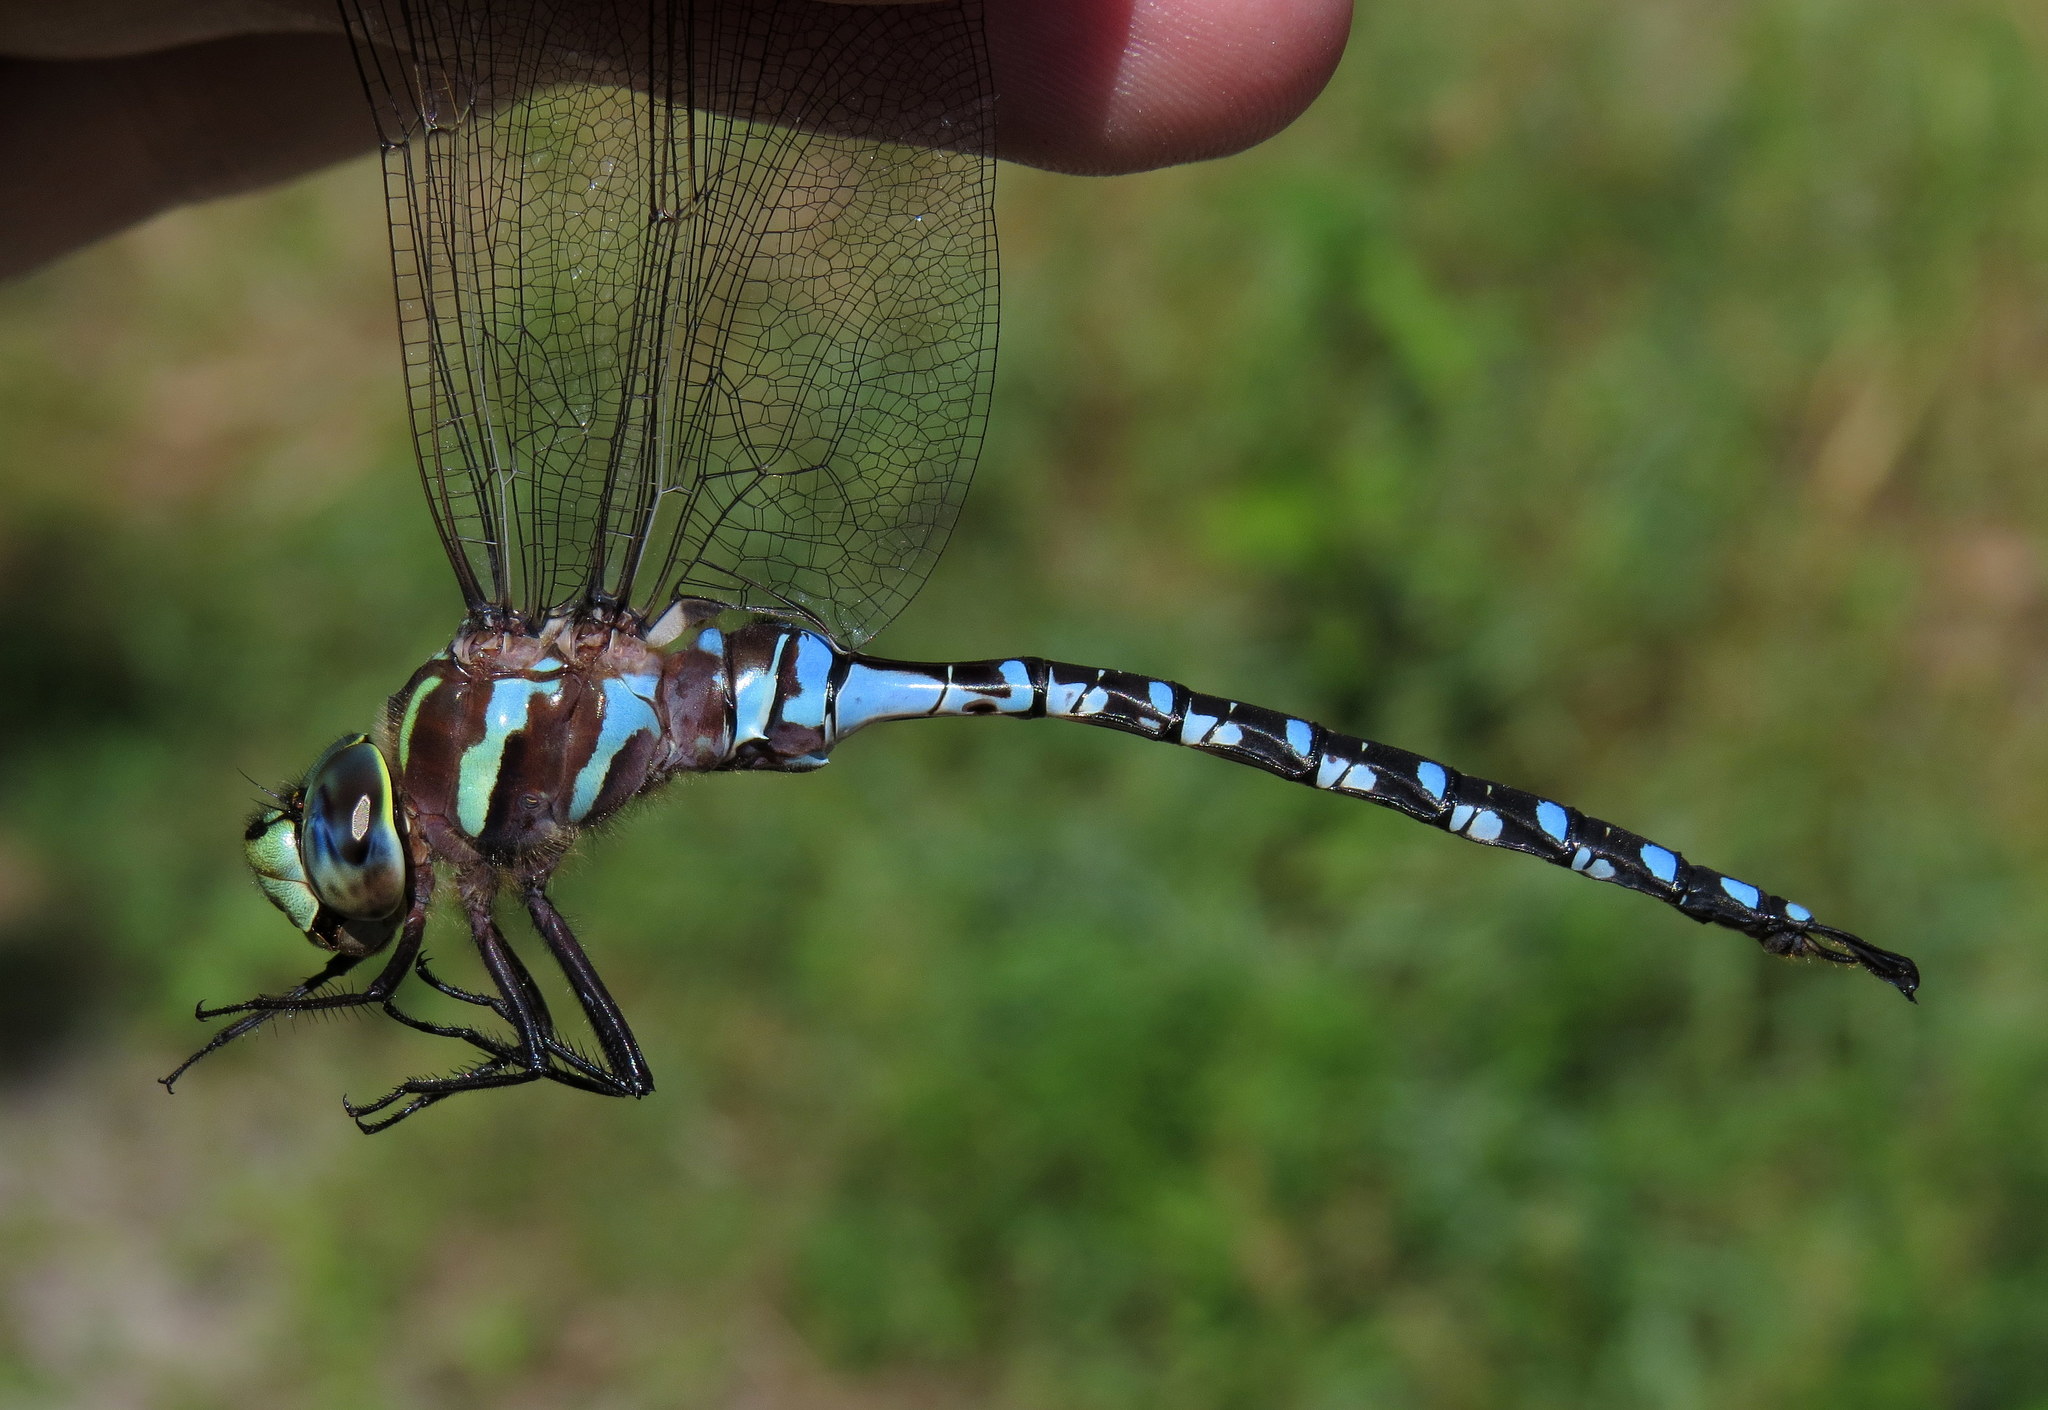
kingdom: Animalia
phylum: Arthropoda
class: Insecta
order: Odonata
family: Aeshnidae
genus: Aeshna
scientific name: Aeshna constricta
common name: Lance-tipped darner
